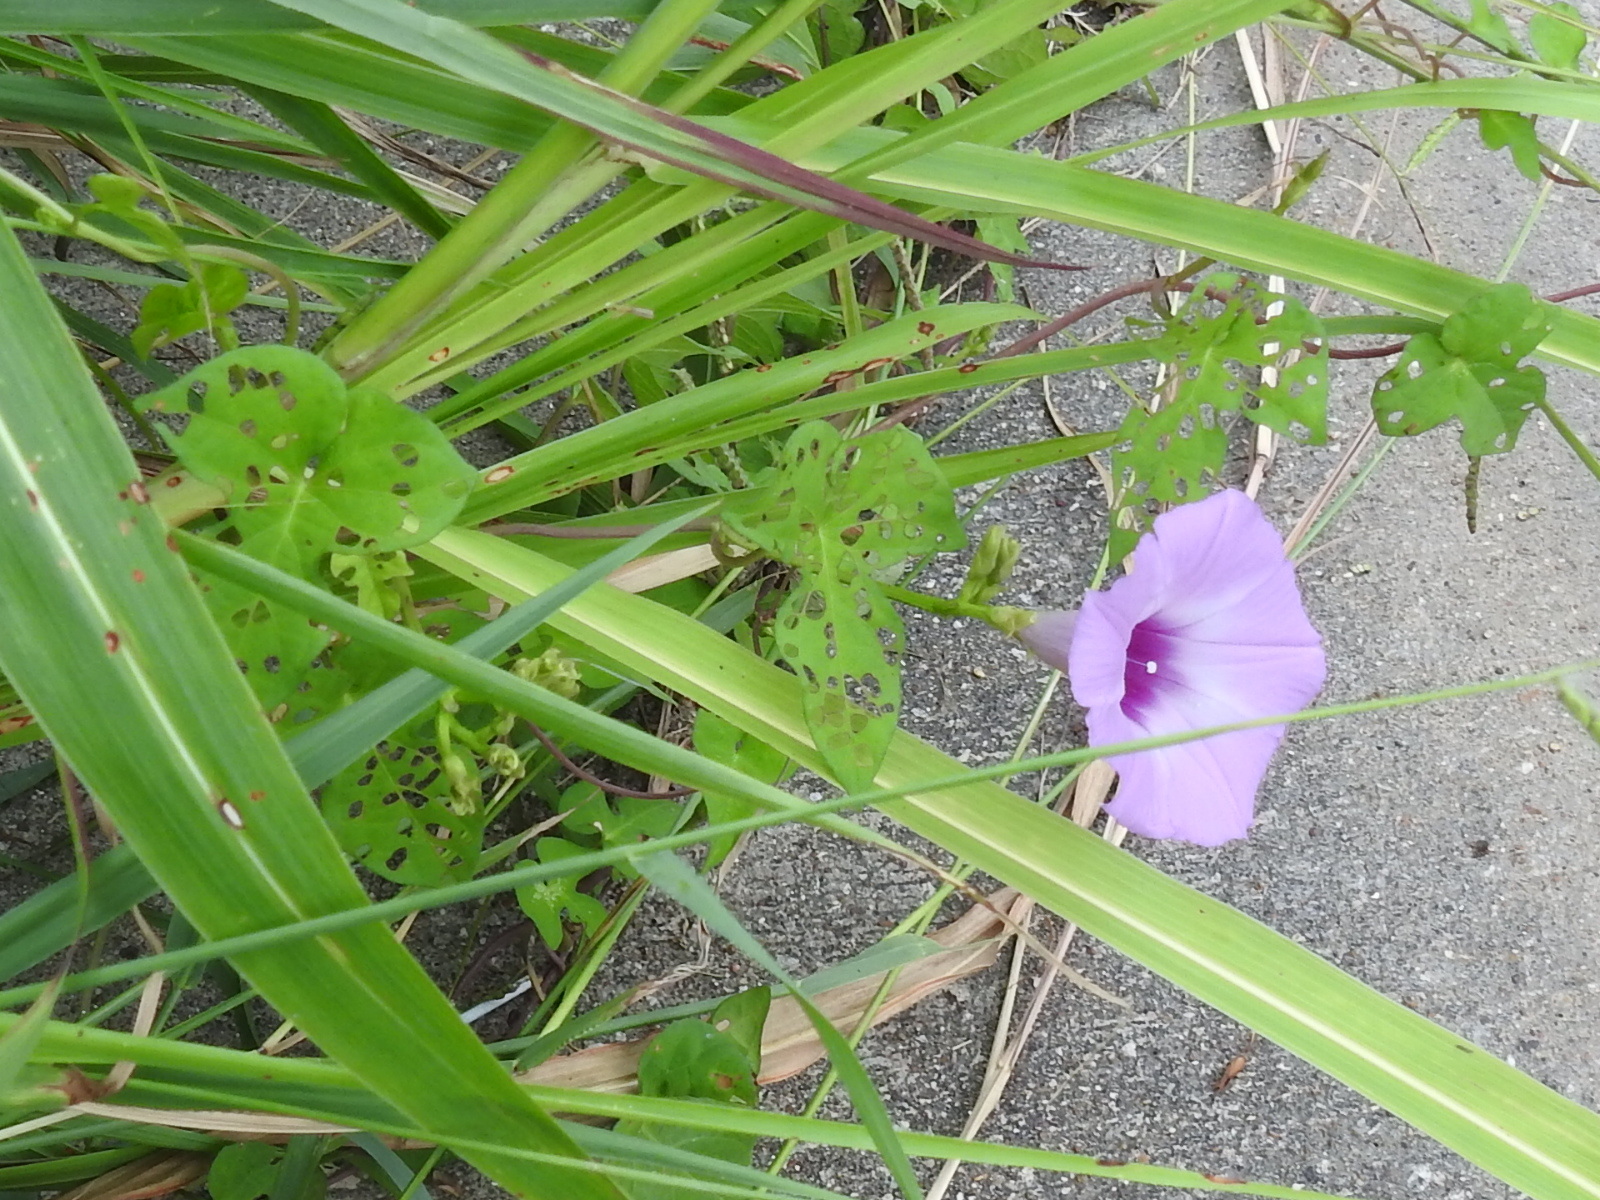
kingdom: Plantae
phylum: Tracheophyta
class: Magnoliopsida
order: Solanales
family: Convolvulaceae
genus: Ipomoea
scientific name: Ipomoea cordatotriloba
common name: Cotton morning glory
